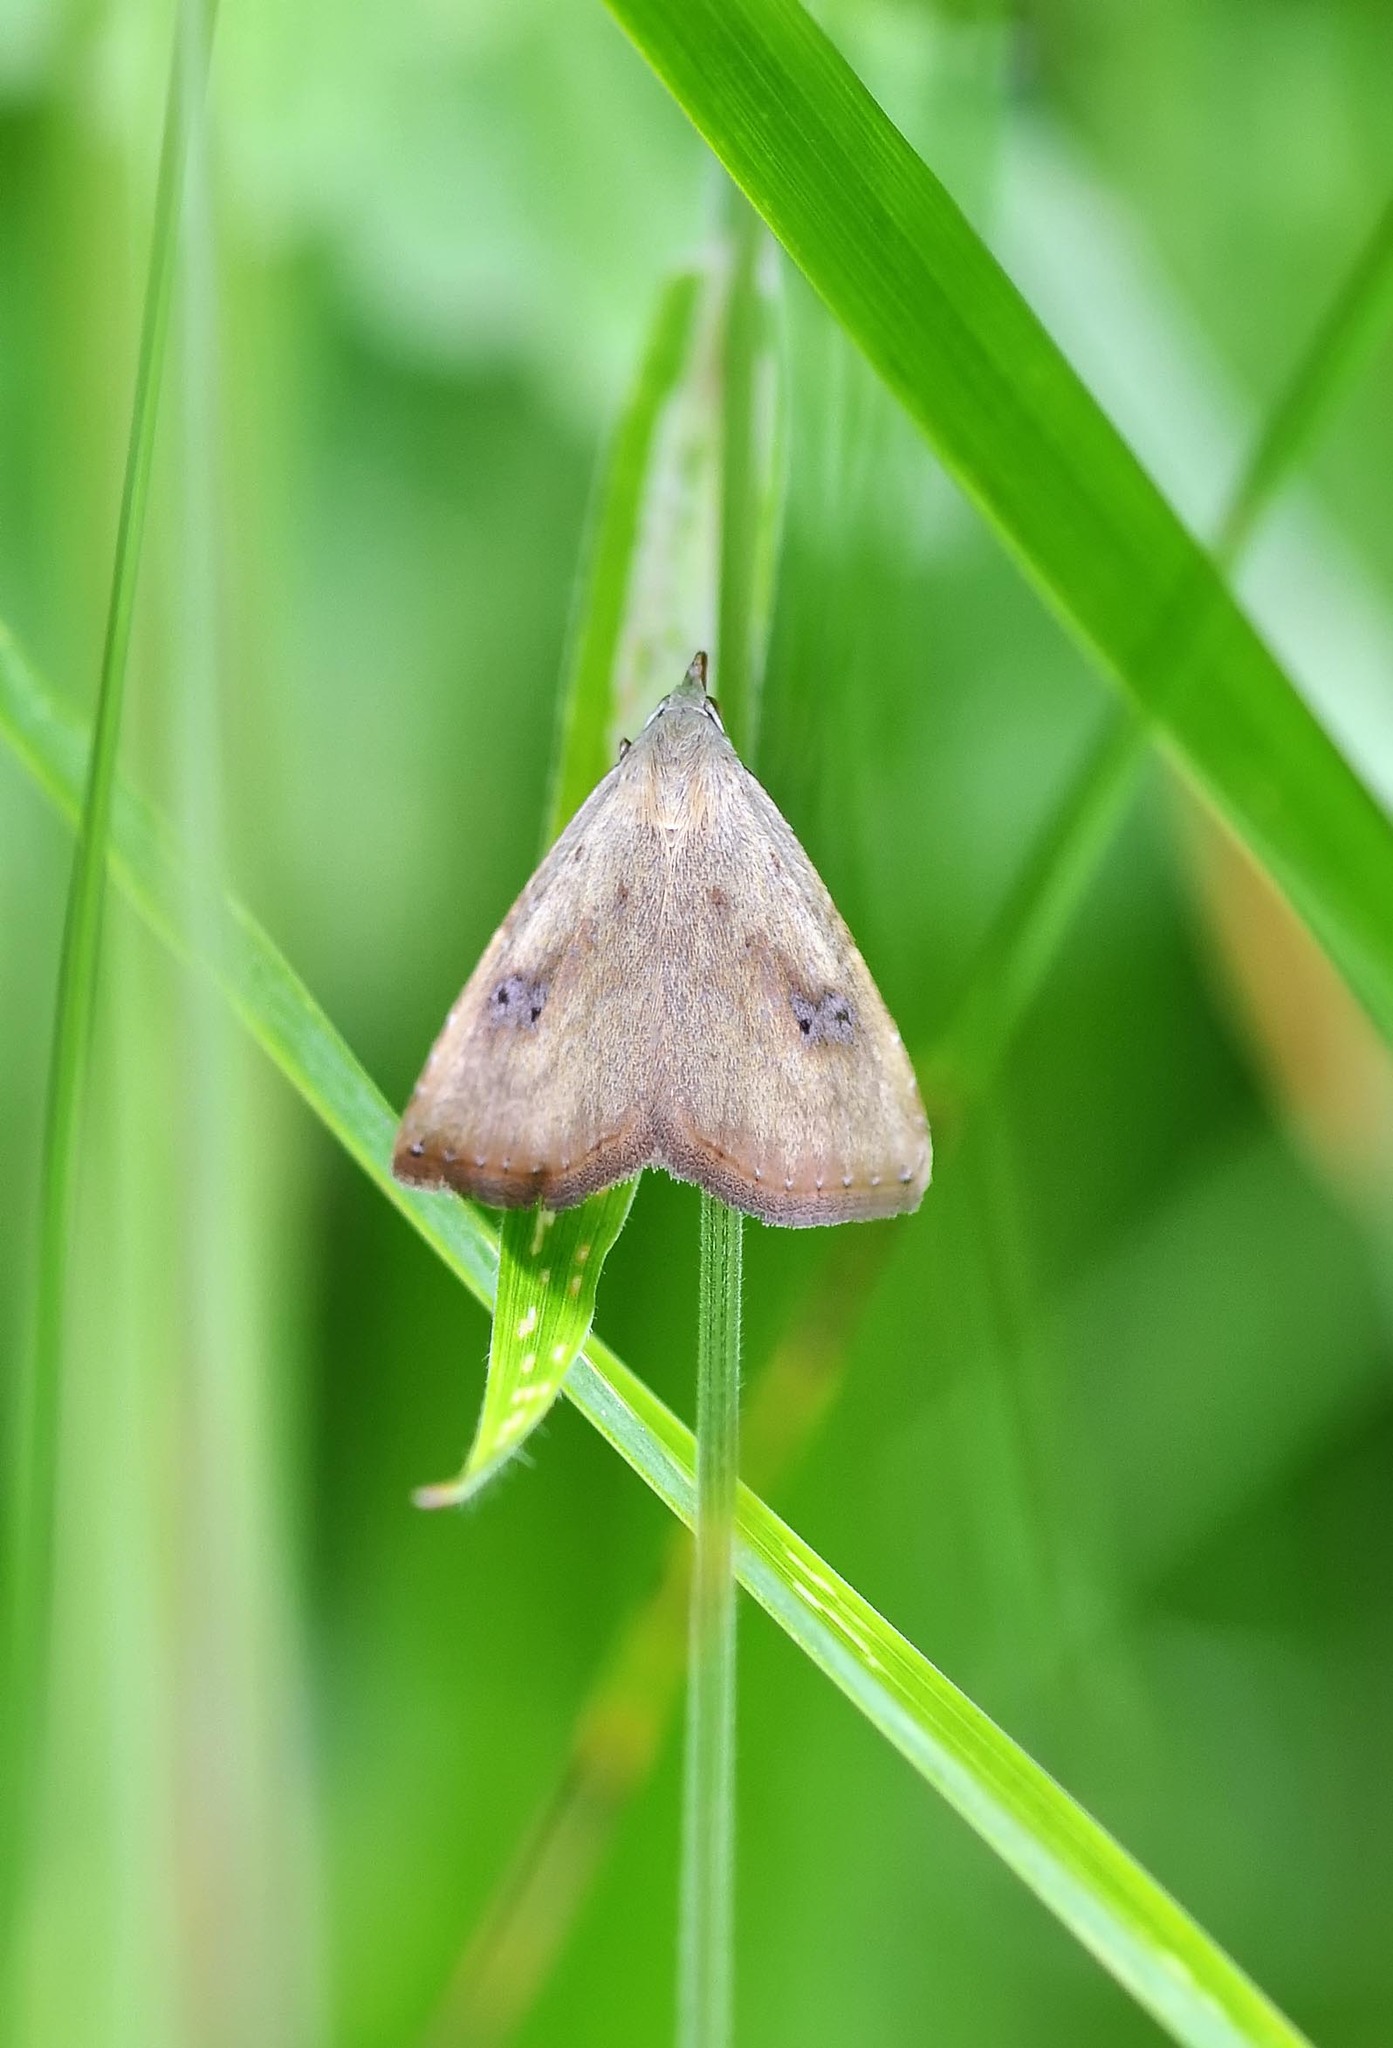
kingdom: Animalia
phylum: Arthropoda
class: Insecta
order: Lepidoptera
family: Erebidae
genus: Rivula
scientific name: Rivula sericealis
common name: Straw dot
